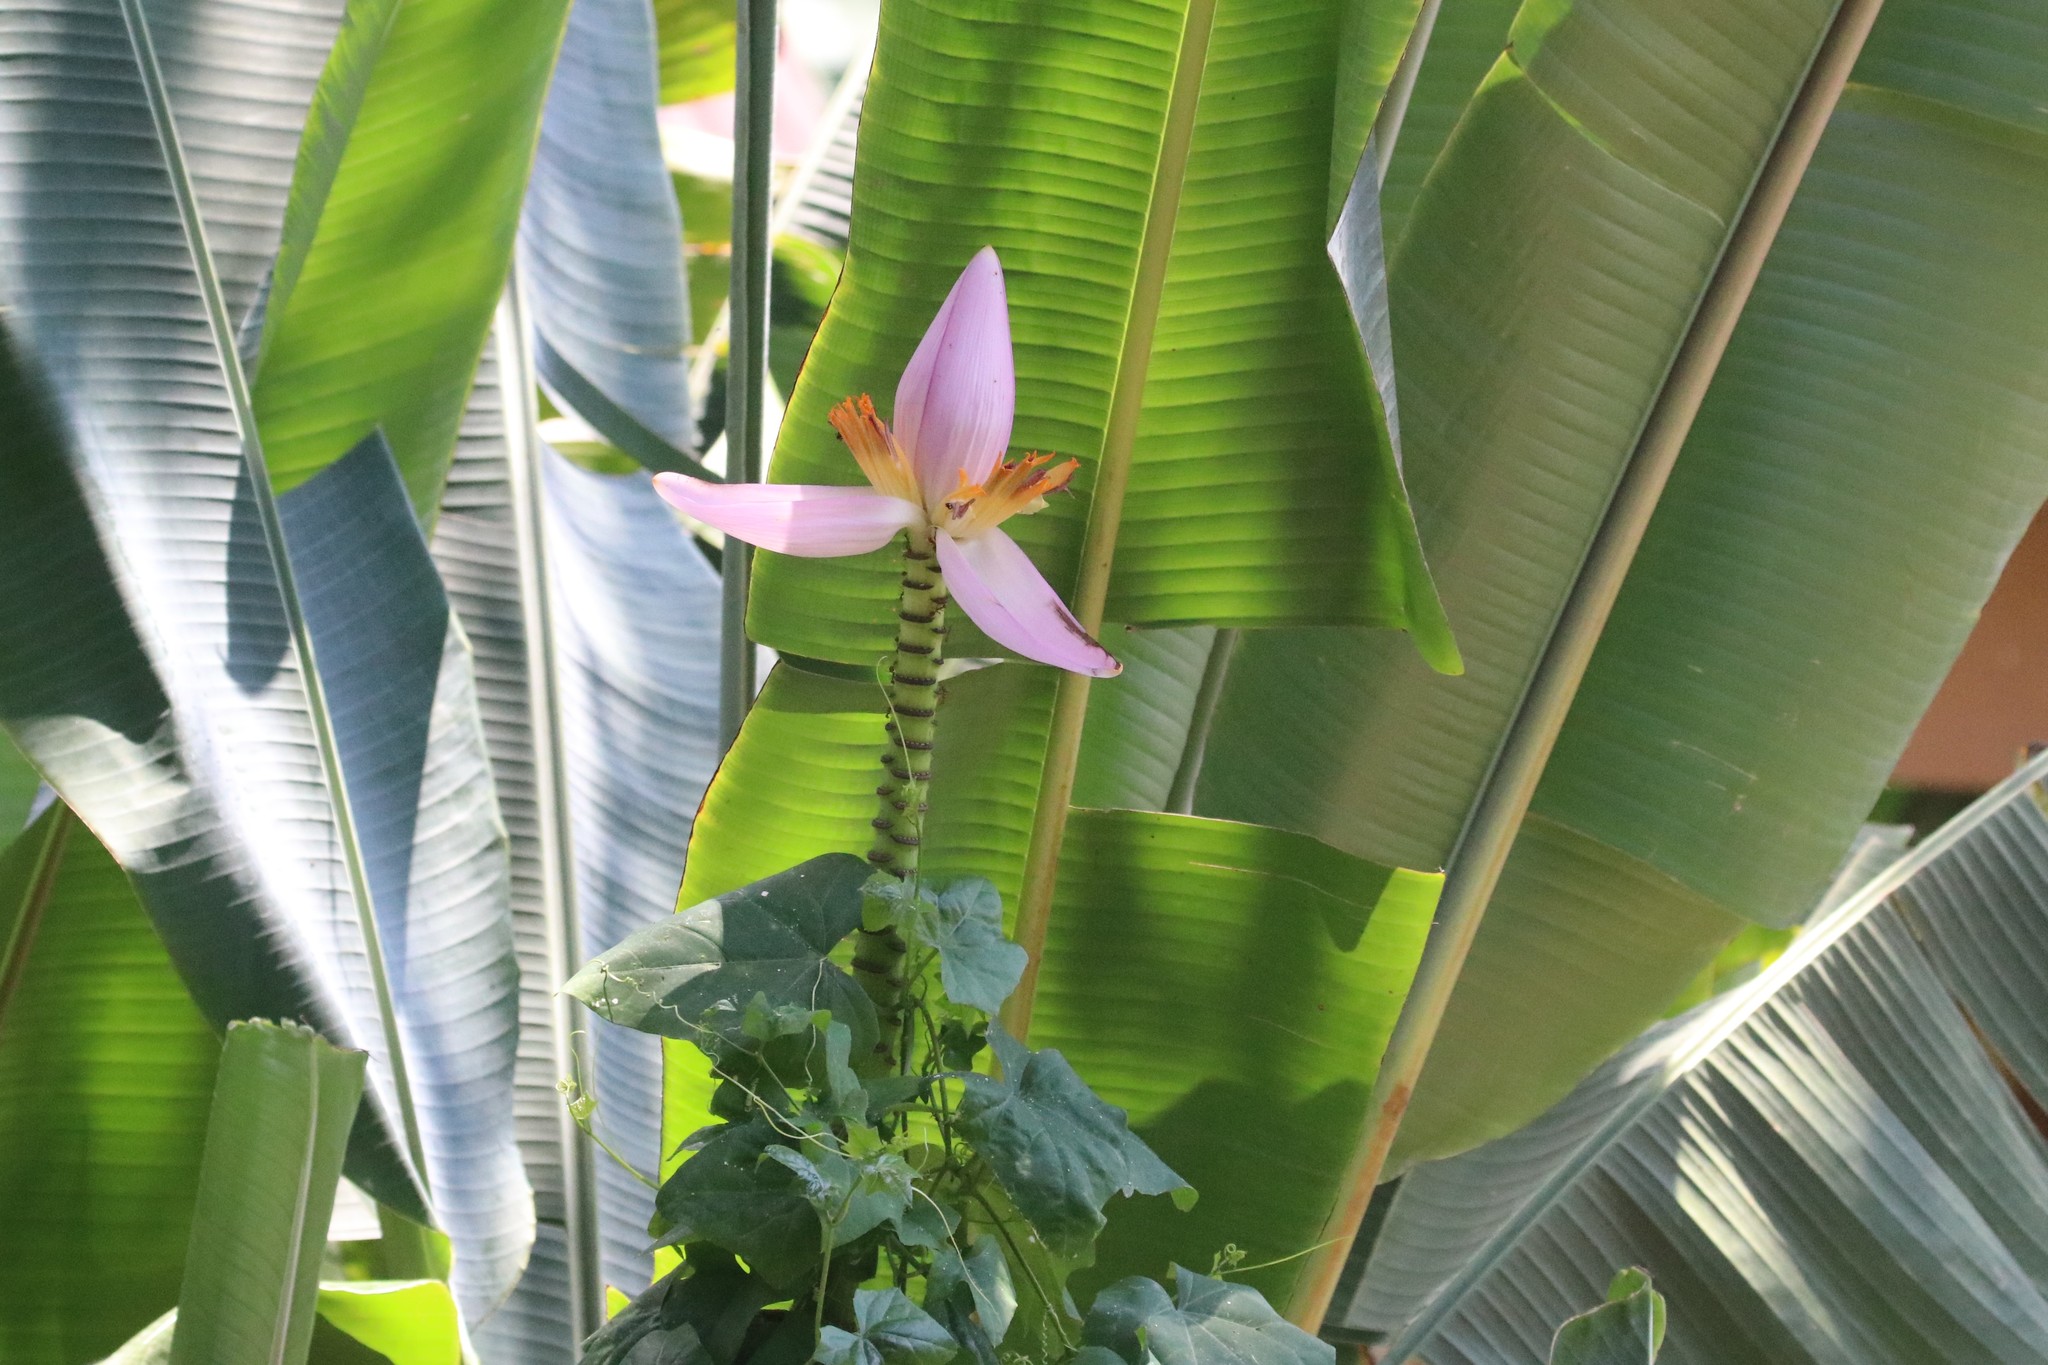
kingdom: Plantae
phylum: Tracheophyta
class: Liliopsida
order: Zingiberales
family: Musaceae
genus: Musa
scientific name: Musa ornata
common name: Flowering banana
